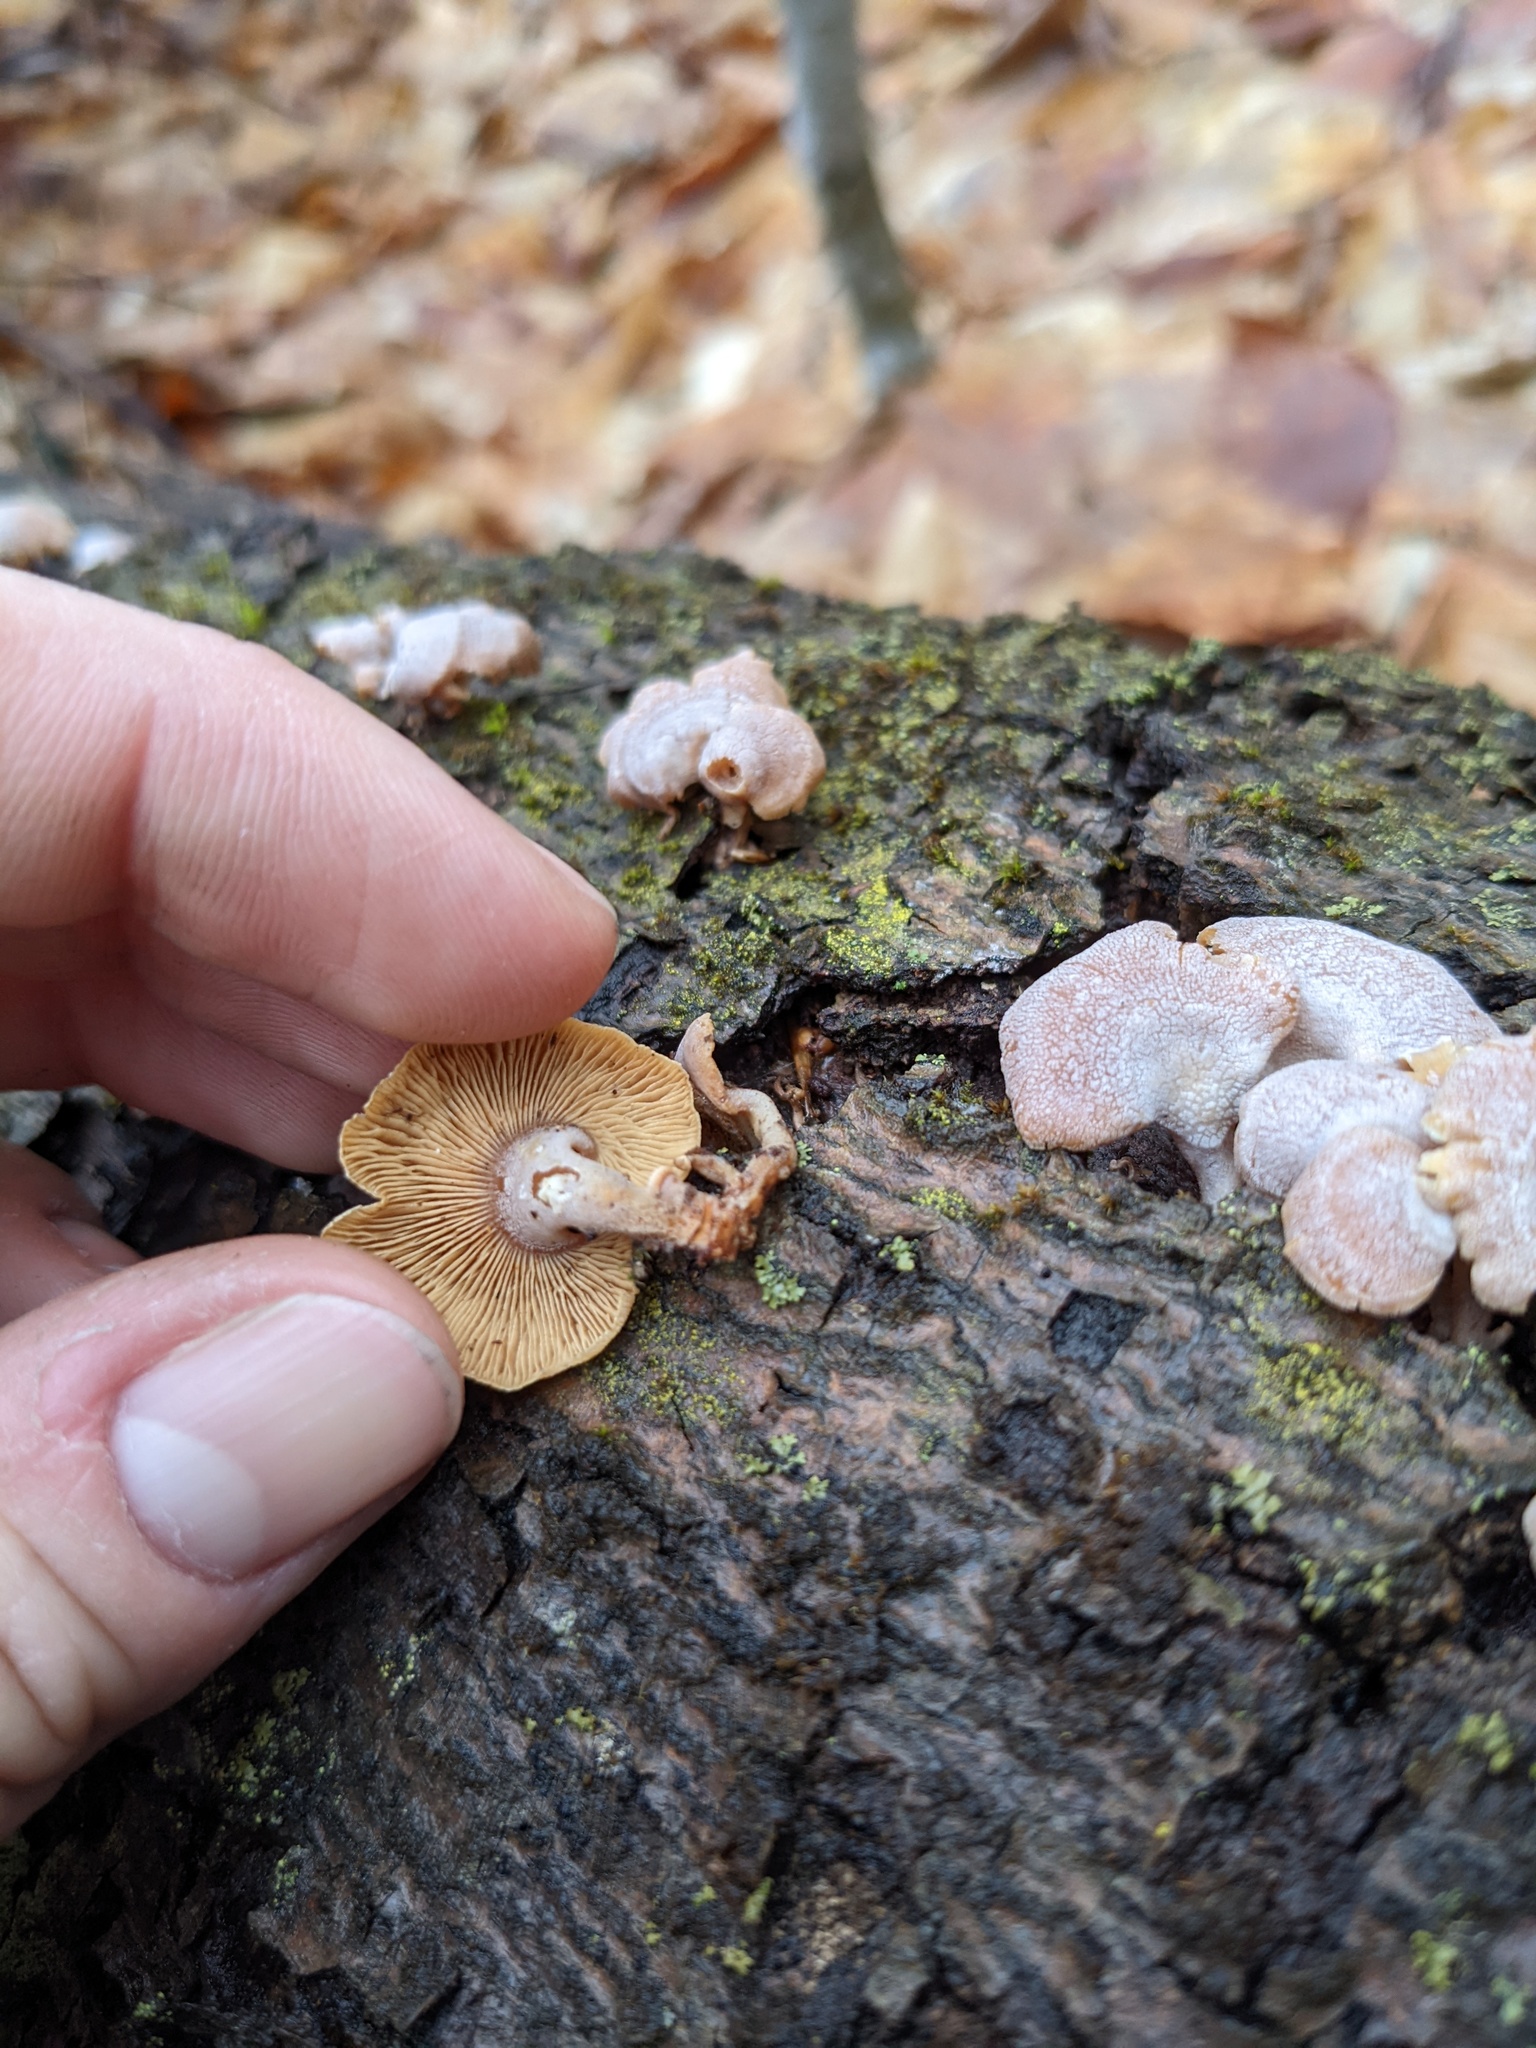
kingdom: Fungi
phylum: Basidiomycota
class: Agaricomycetes
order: Agaricales
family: Mycenaceae
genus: Panellus
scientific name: Panellus stipticus
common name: Bitter oysterling
